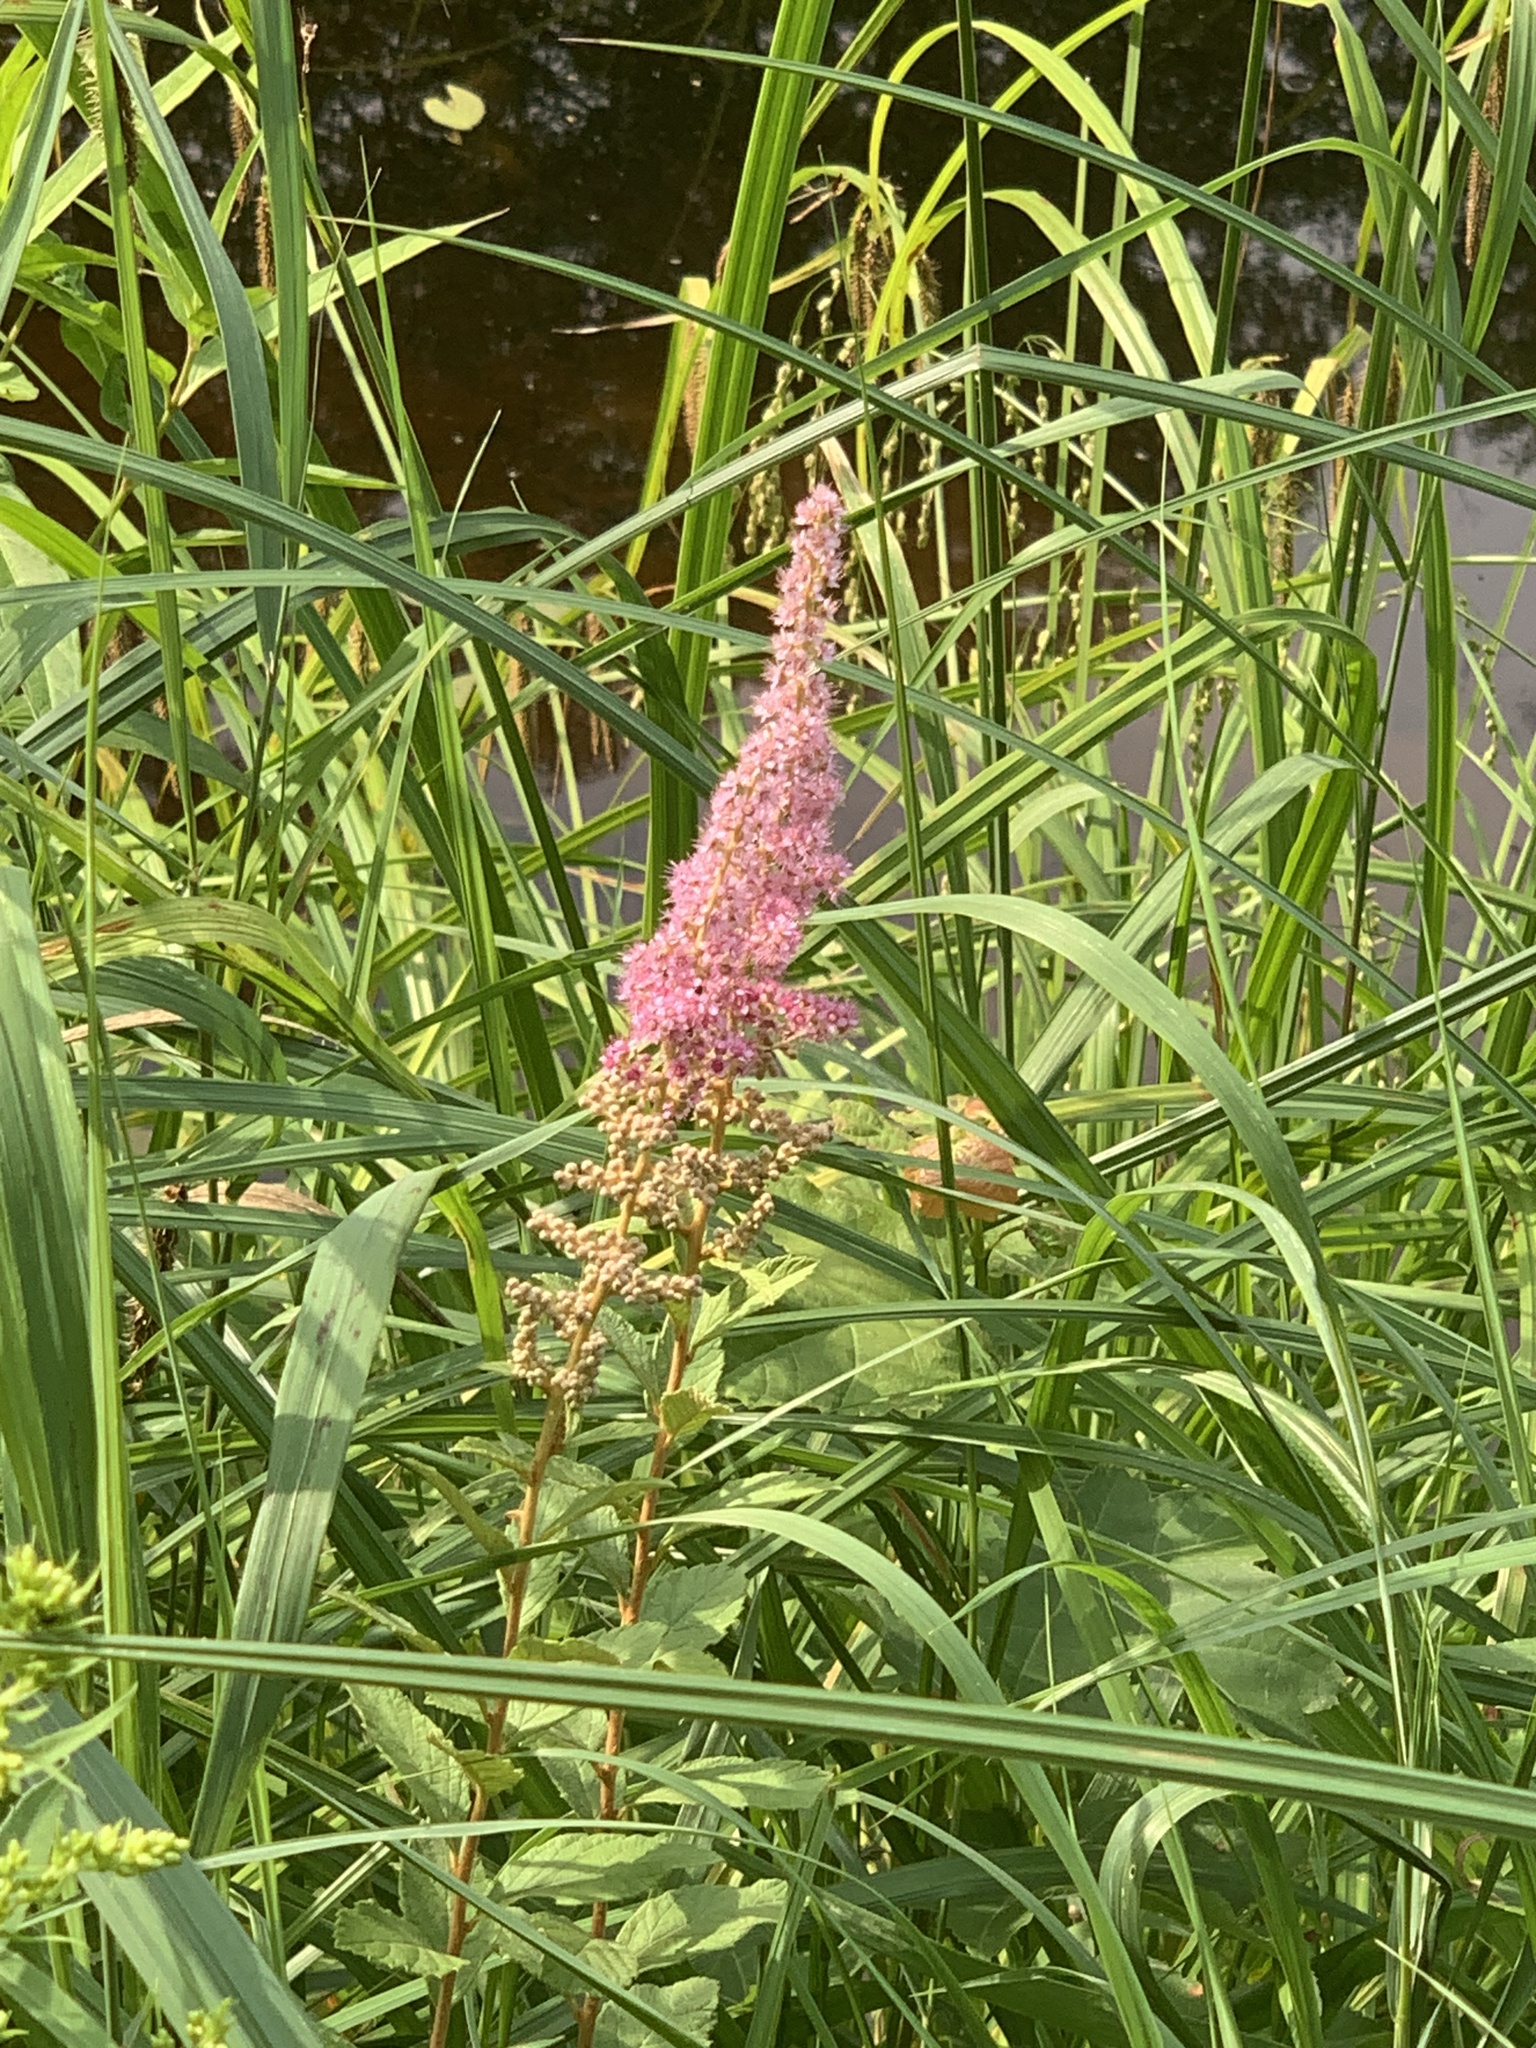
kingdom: Plantae
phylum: Tracheophyta
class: Magnoliopsida
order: Rosales
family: Rosaceae
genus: Spiraea
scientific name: Spiraea tomentosa
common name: Hardhack
